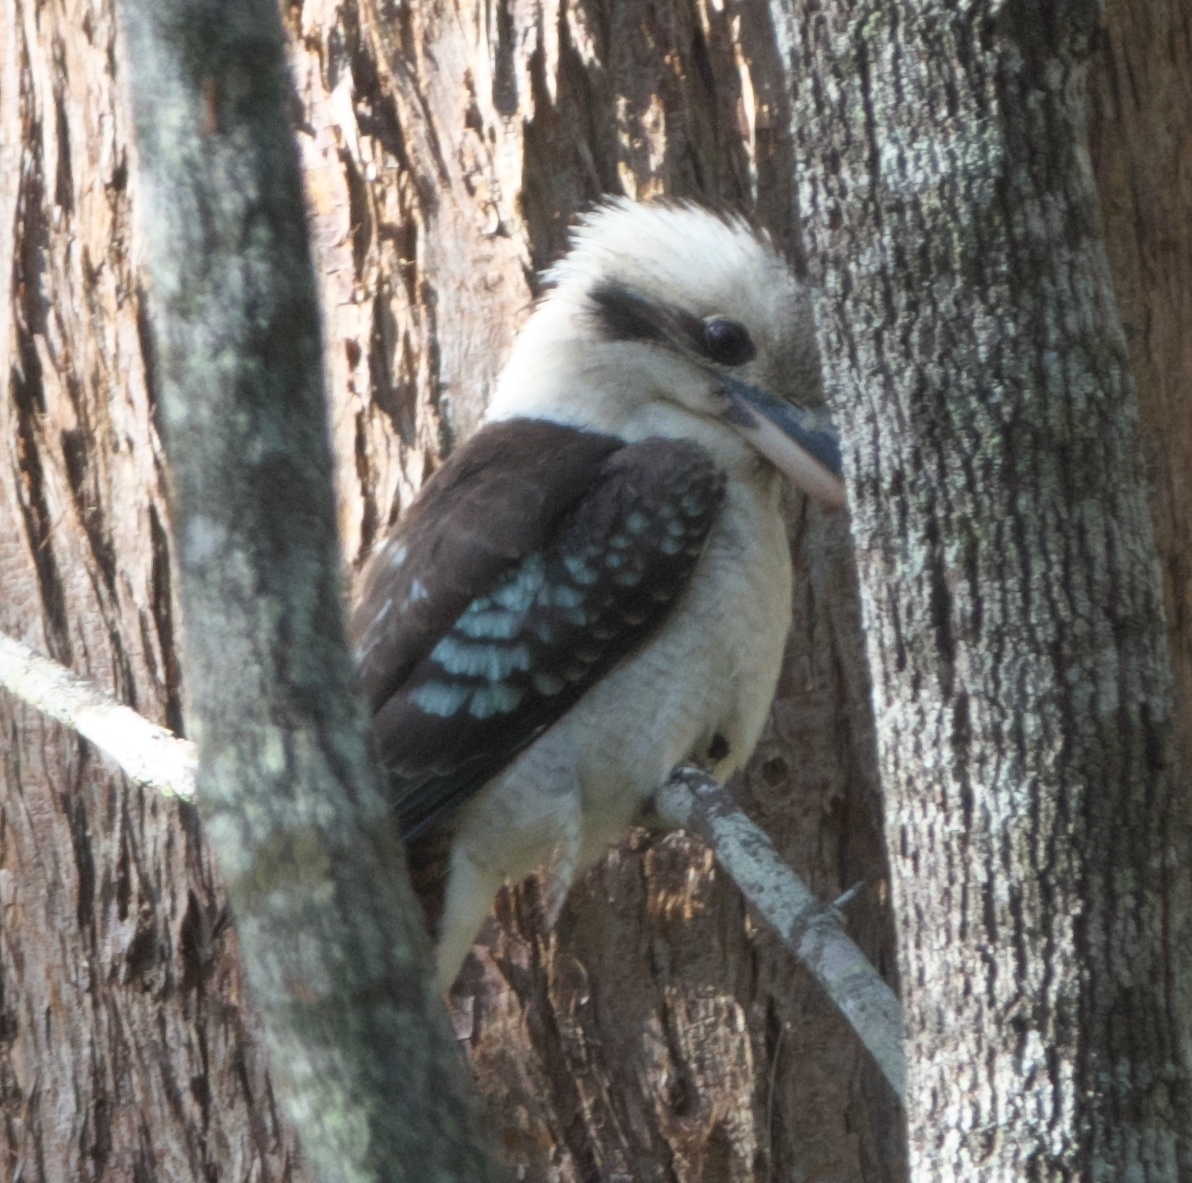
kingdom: Animalia
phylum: Chordata
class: Aves
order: Coraciiformes
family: Alcedinidae
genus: Dacelo
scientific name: Dacelo novaeguineae
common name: Laughing kookaburra
